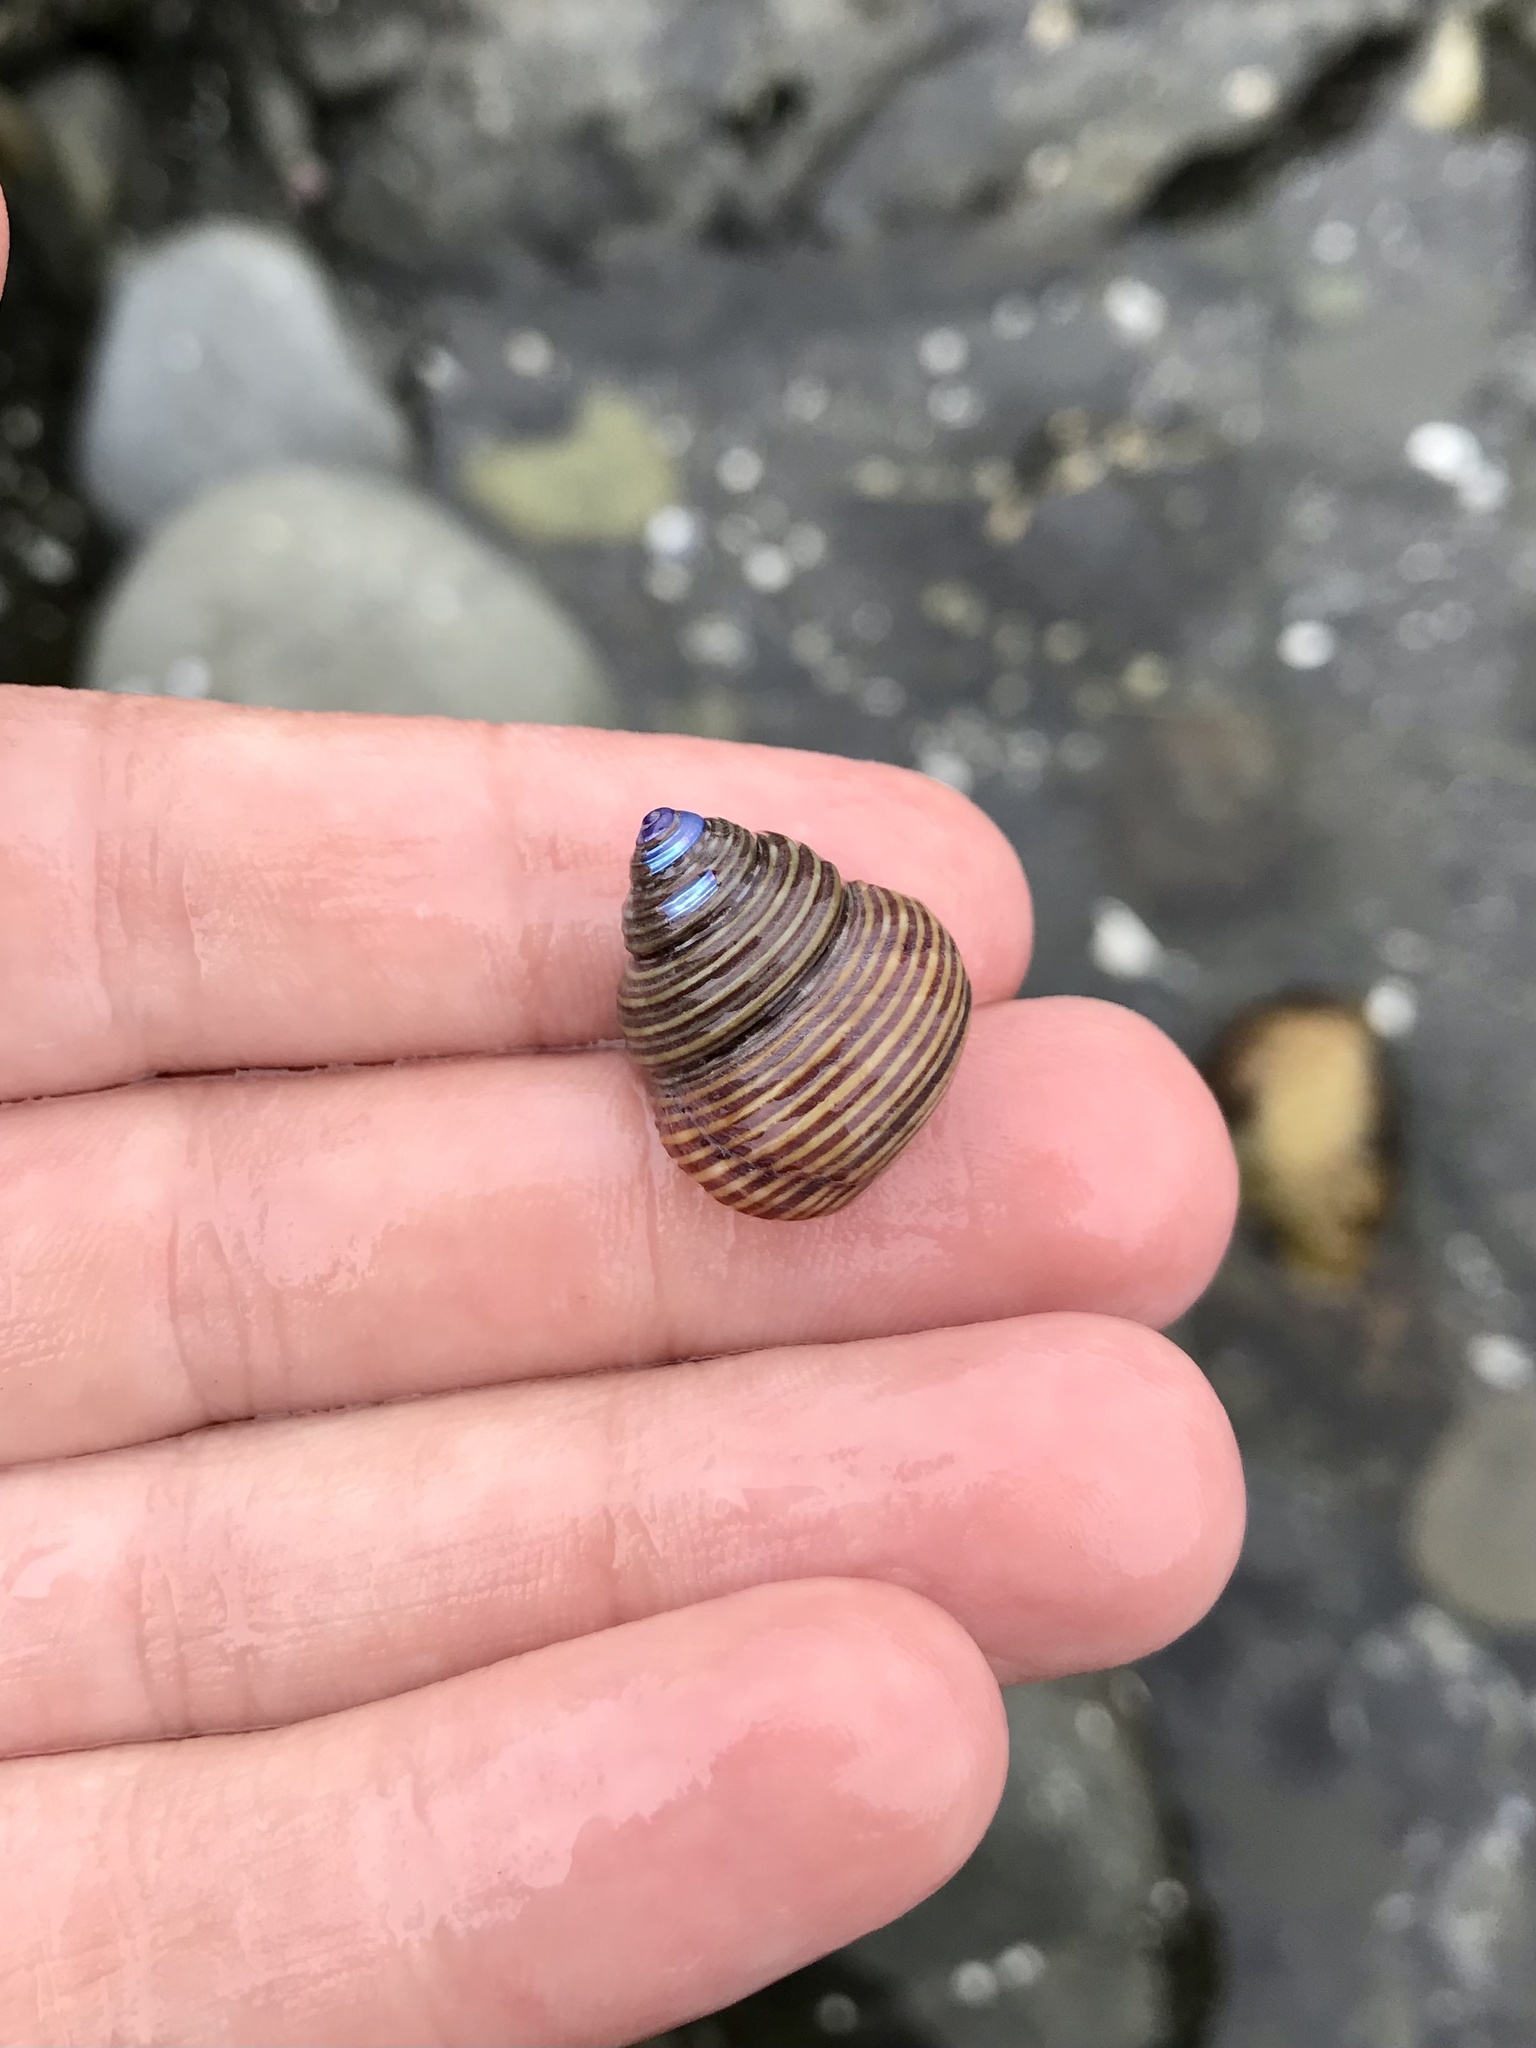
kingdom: Animalia
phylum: Mollusca
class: Gastropoda
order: Trochida
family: Calliostomatidae
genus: Calliostoma
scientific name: Calliostoma ligatum
